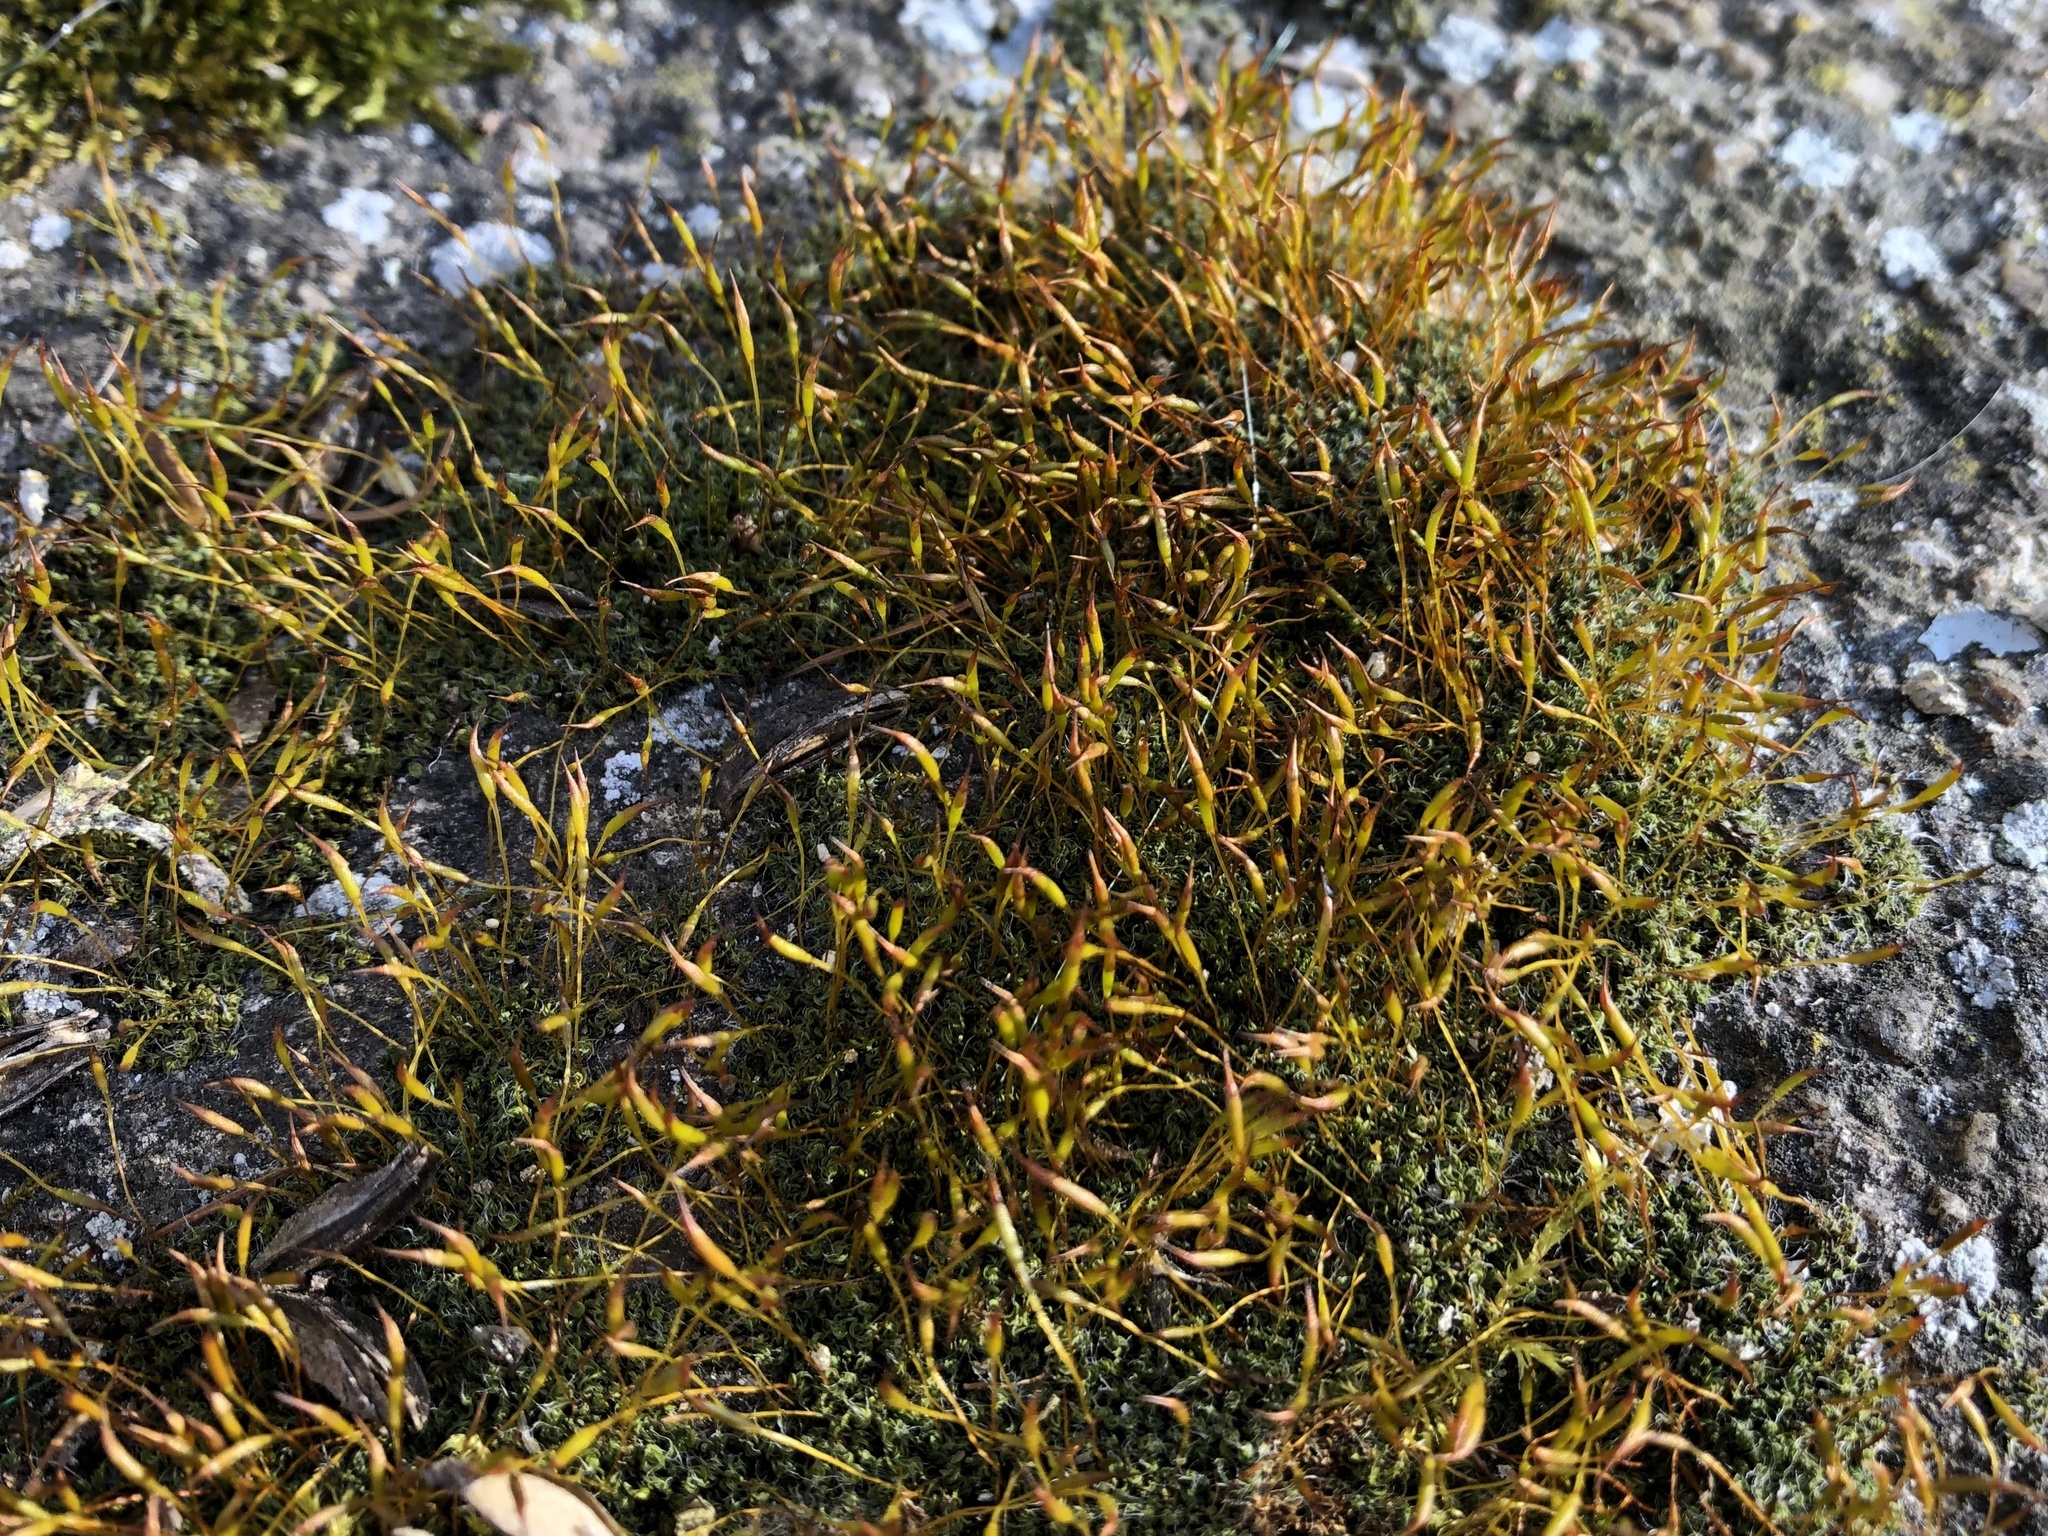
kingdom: Plantae
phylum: Bryophyta
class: Bryopsida
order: Pottiales
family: Pottiaceae
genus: Tortula
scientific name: Tortula muralis
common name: Wall screw-moss
